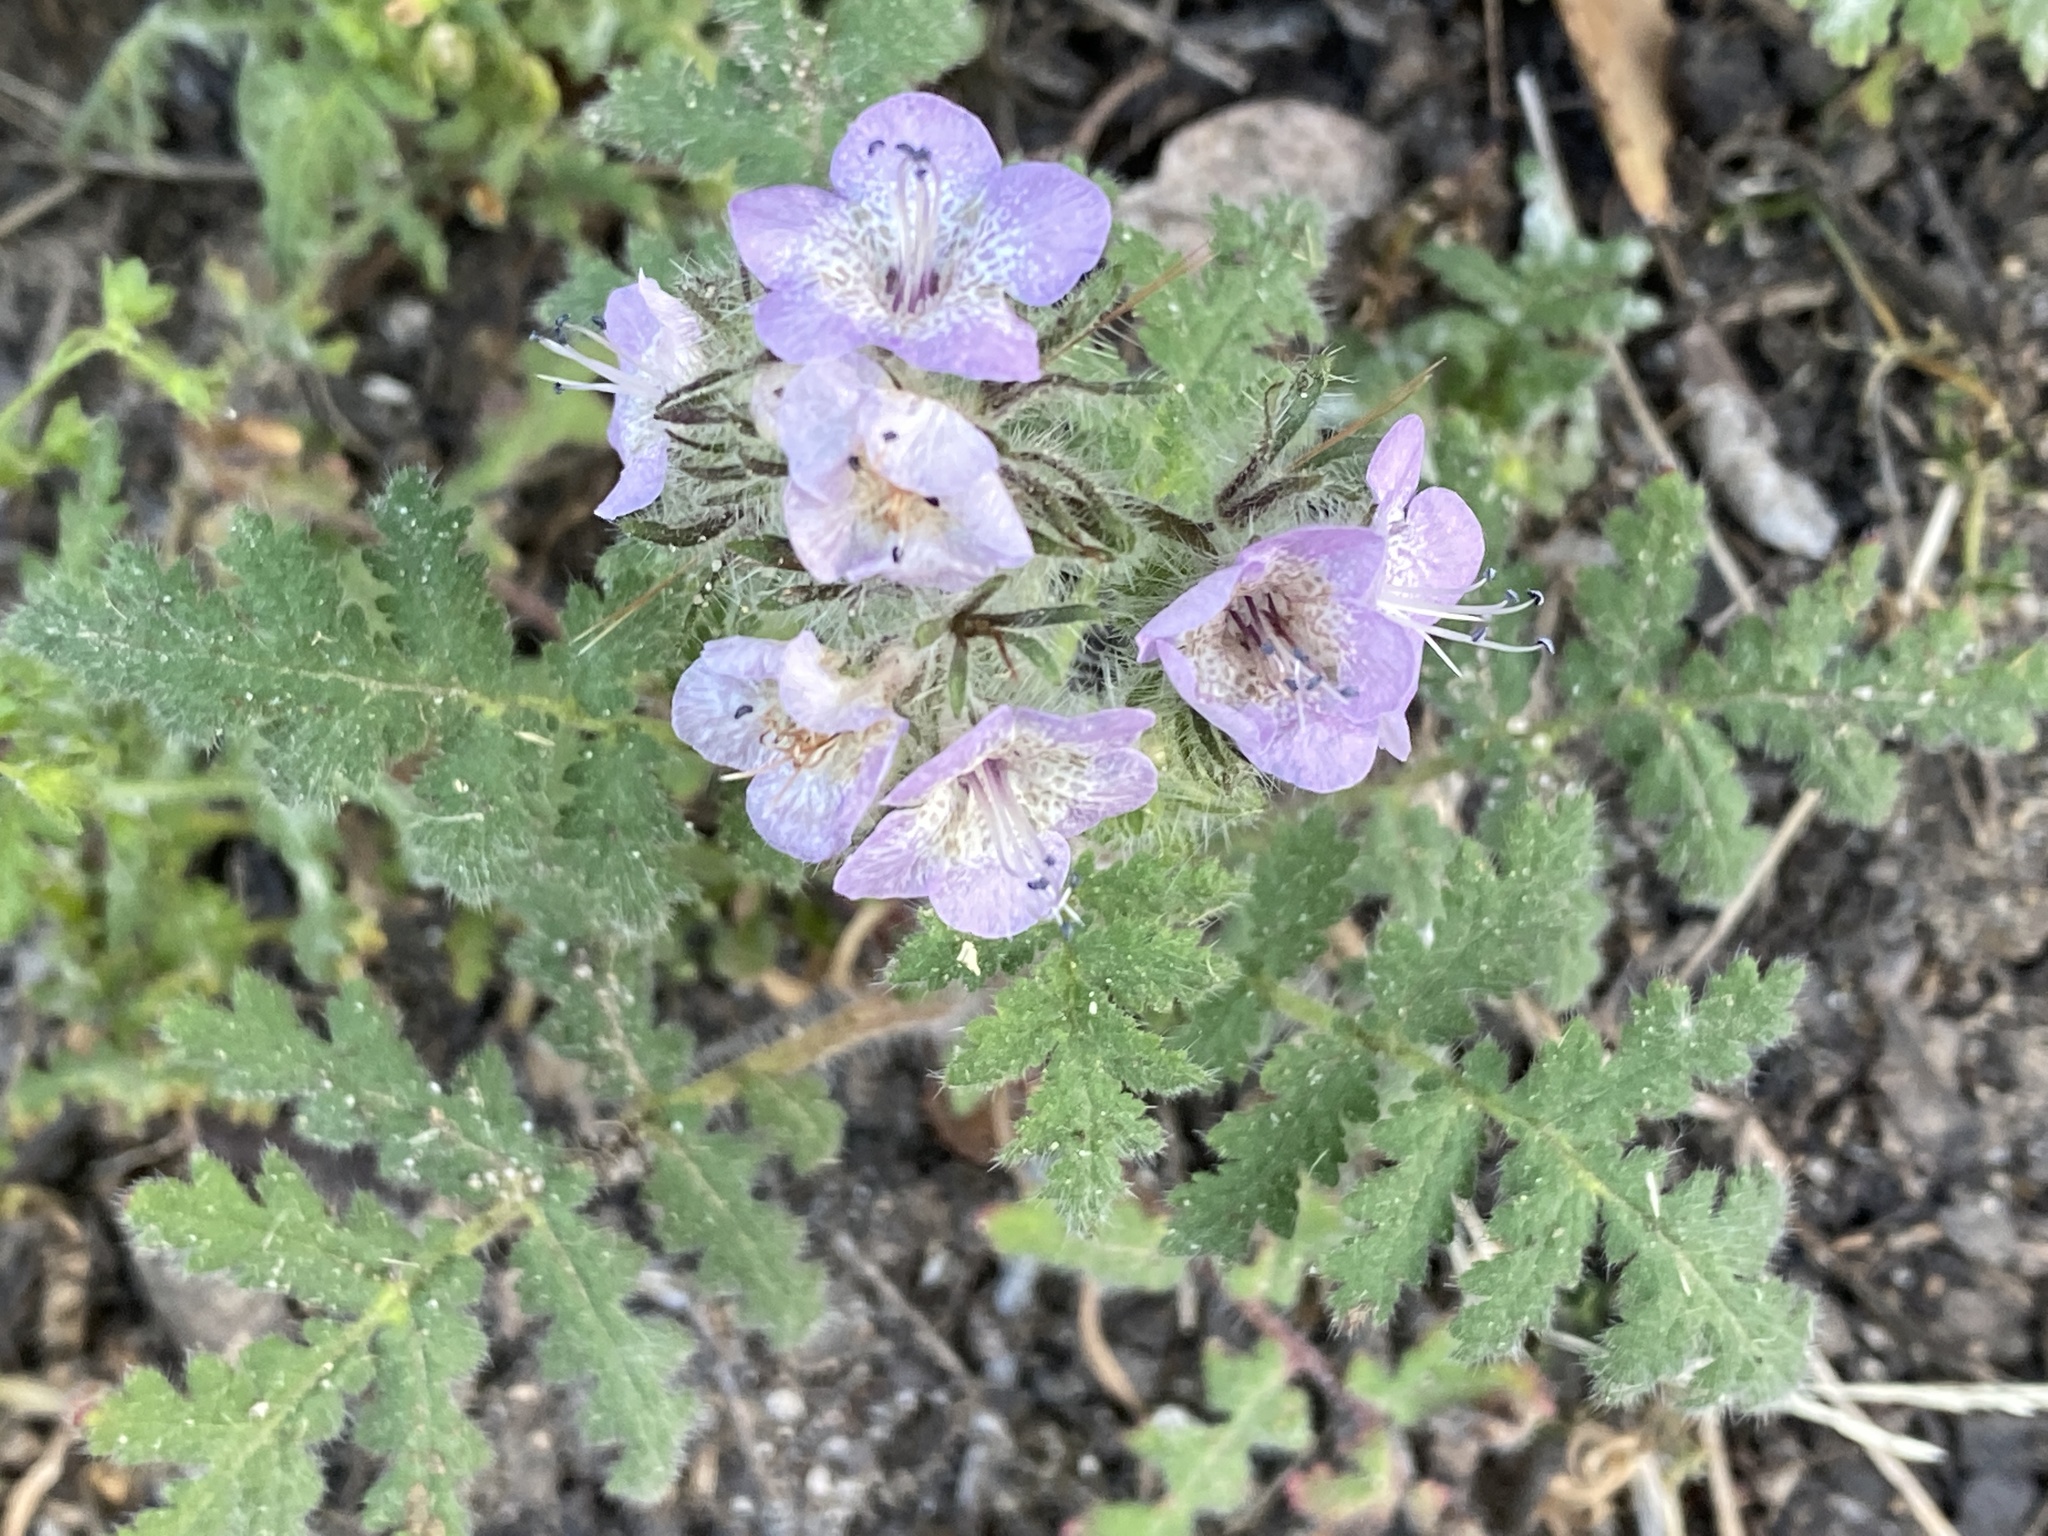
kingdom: Plantae
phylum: Tracheophyta
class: Magnoliopsida
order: Boraginales
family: Hydrophyllaceae
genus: Phacelia
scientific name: Phacelia cicutaria
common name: Caterpillar phacelia
